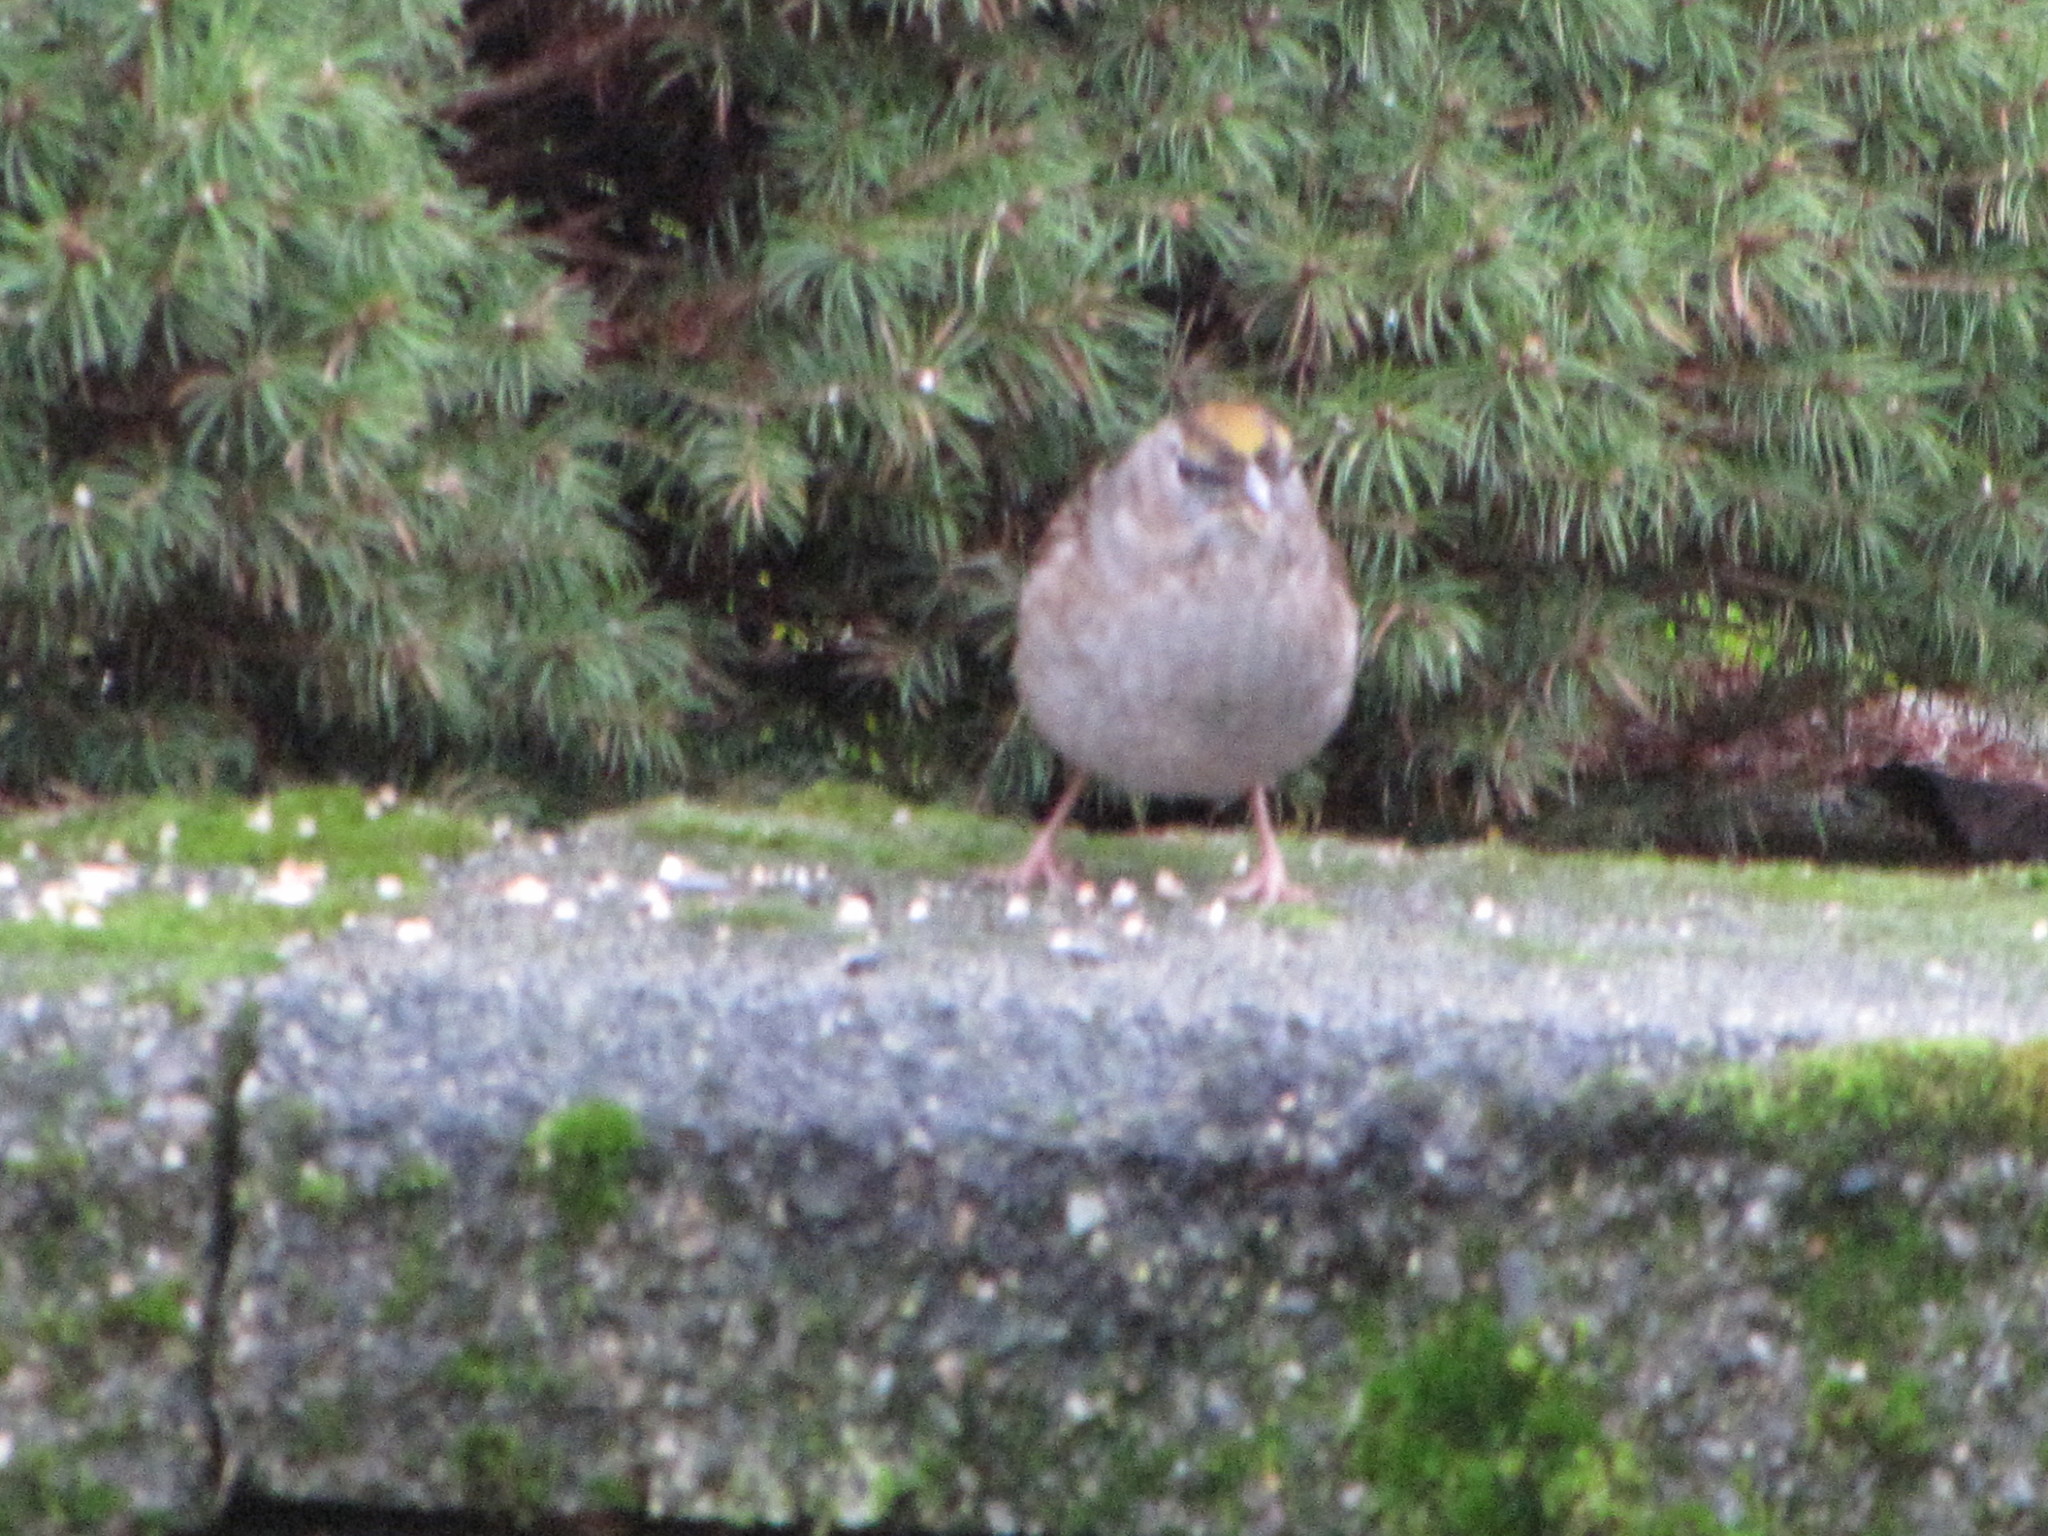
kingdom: Animalia
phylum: Chordata
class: Aves
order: Passeriformes
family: Passerellidae
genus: Zonotrichia
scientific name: Zonotrichia atricapilla
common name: Golden-crowned sparrow
